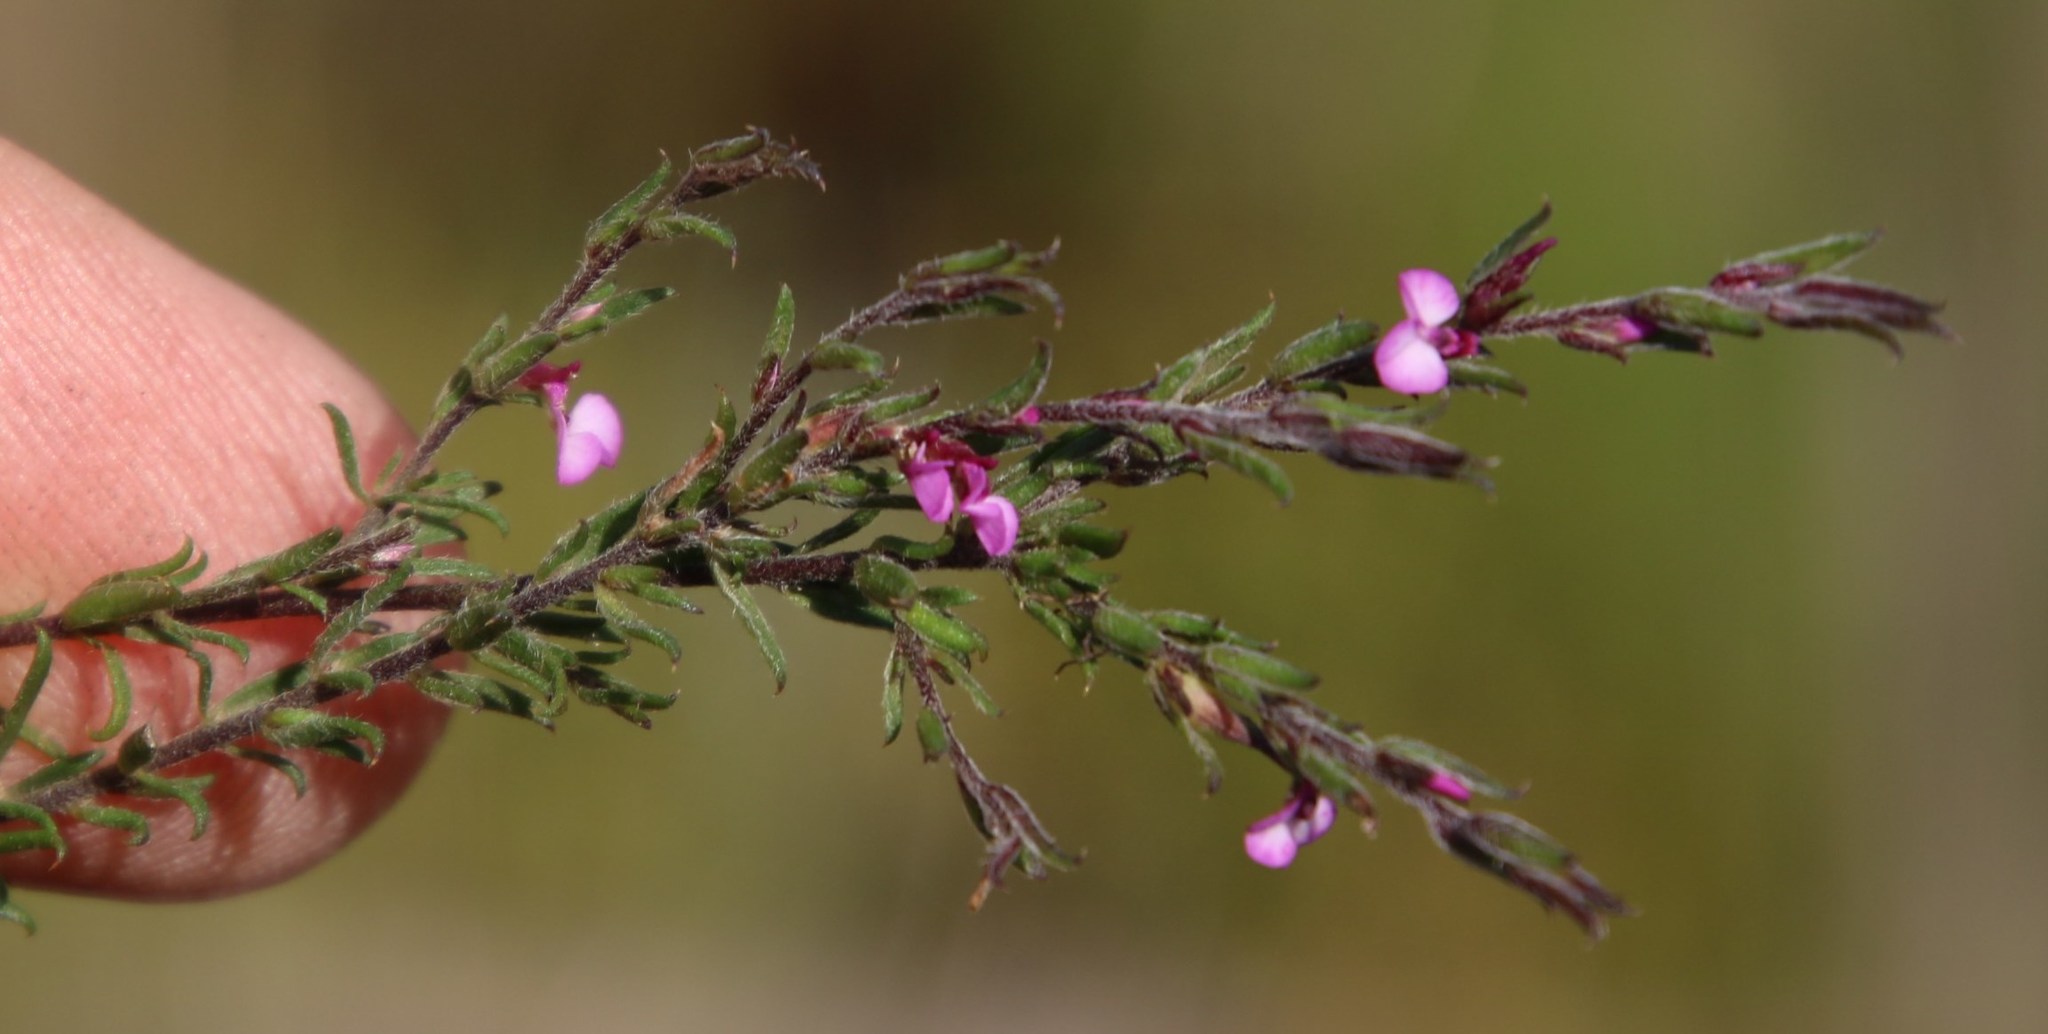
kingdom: Plantae
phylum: Tracheophyta
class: Magnoliopsida
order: Fabales
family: Polygalaceae
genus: Muraltia
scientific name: Muraltia stipulacea
